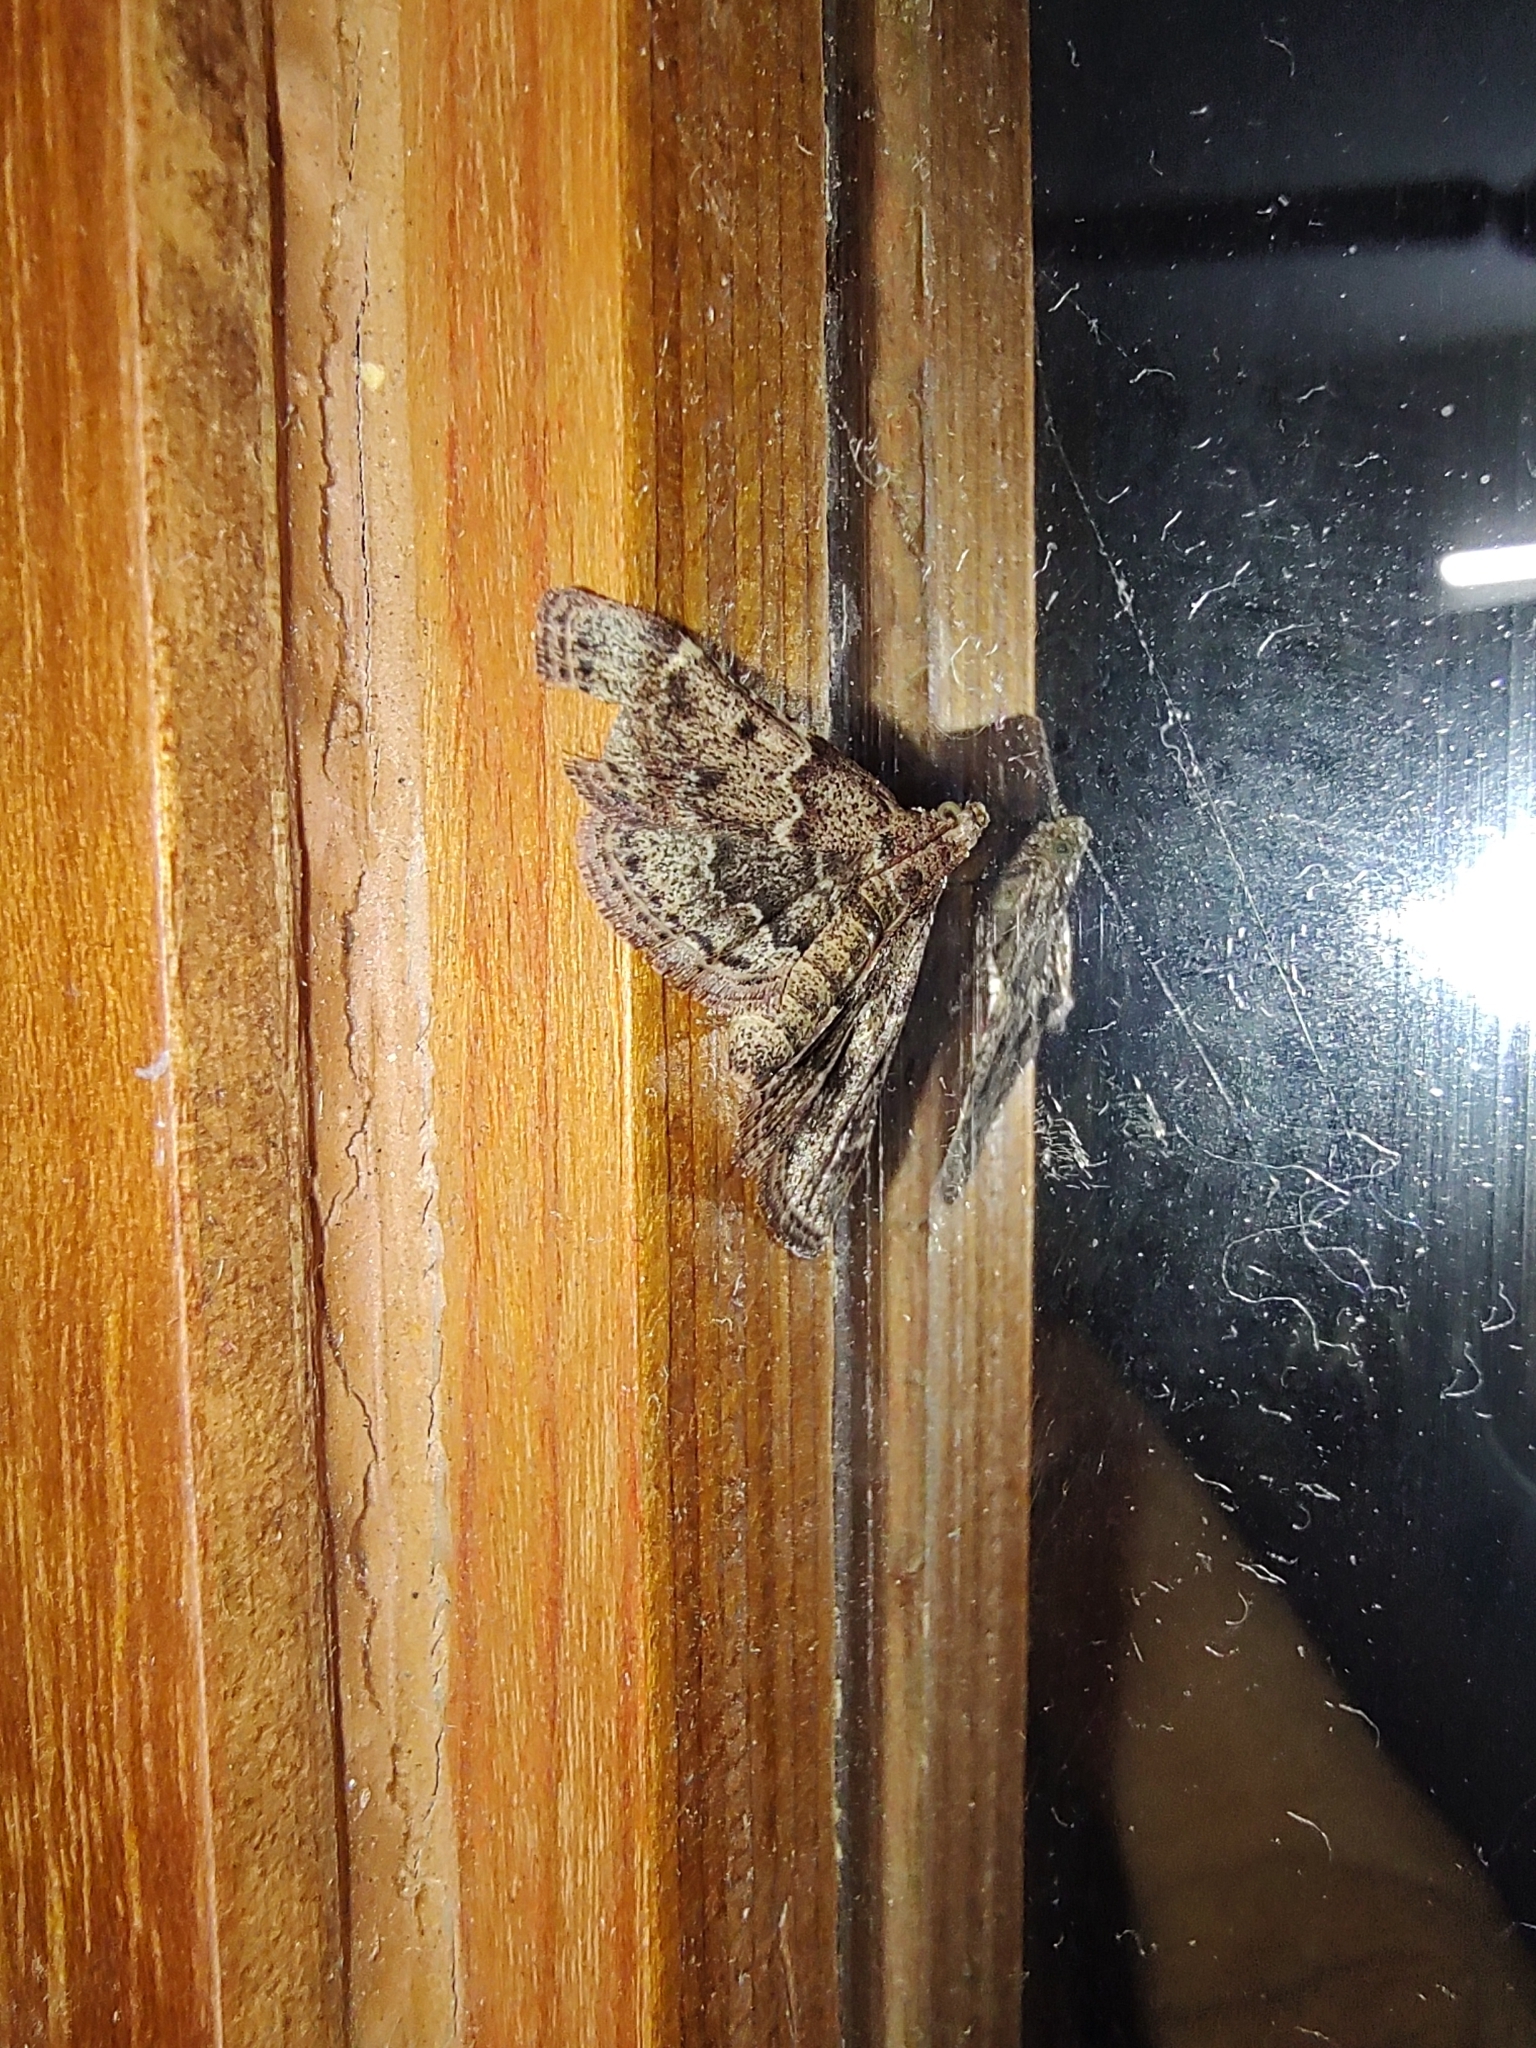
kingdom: Animalia
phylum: Arthropoda
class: Insecta
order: Lepidoptera
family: Pyralidae
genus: Pyralis
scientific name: Pyralis manihotalis
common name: Moth
